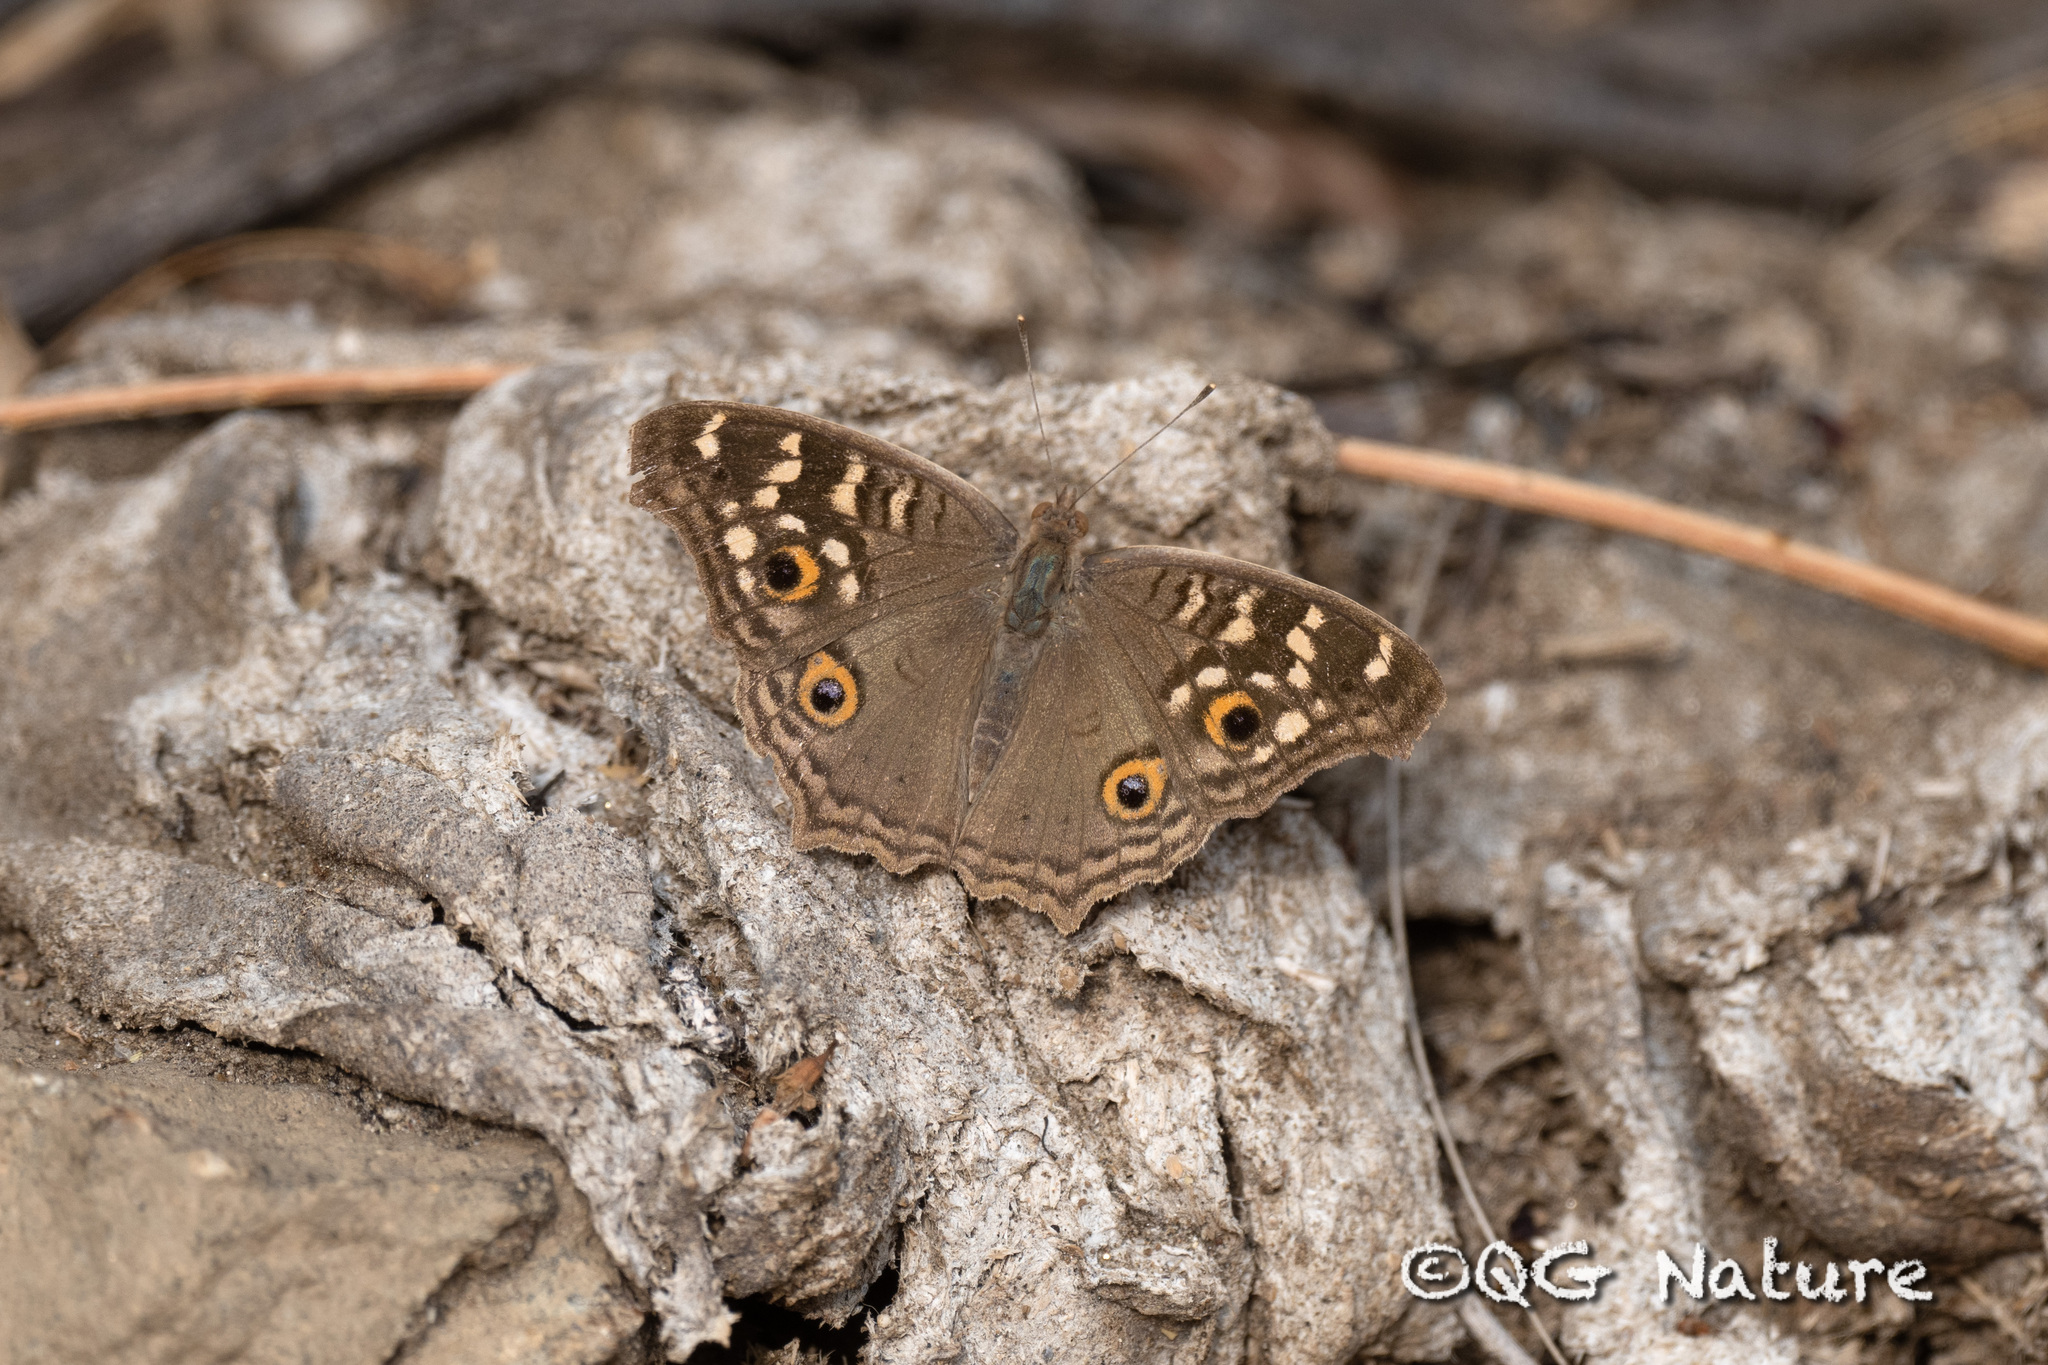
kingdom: Animalia
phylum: Arthropoda
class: Insecta
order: Lepidoptera
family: Nymphalidae
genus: Junonia
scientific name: Junonia lemonias
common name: Lemon pansy
